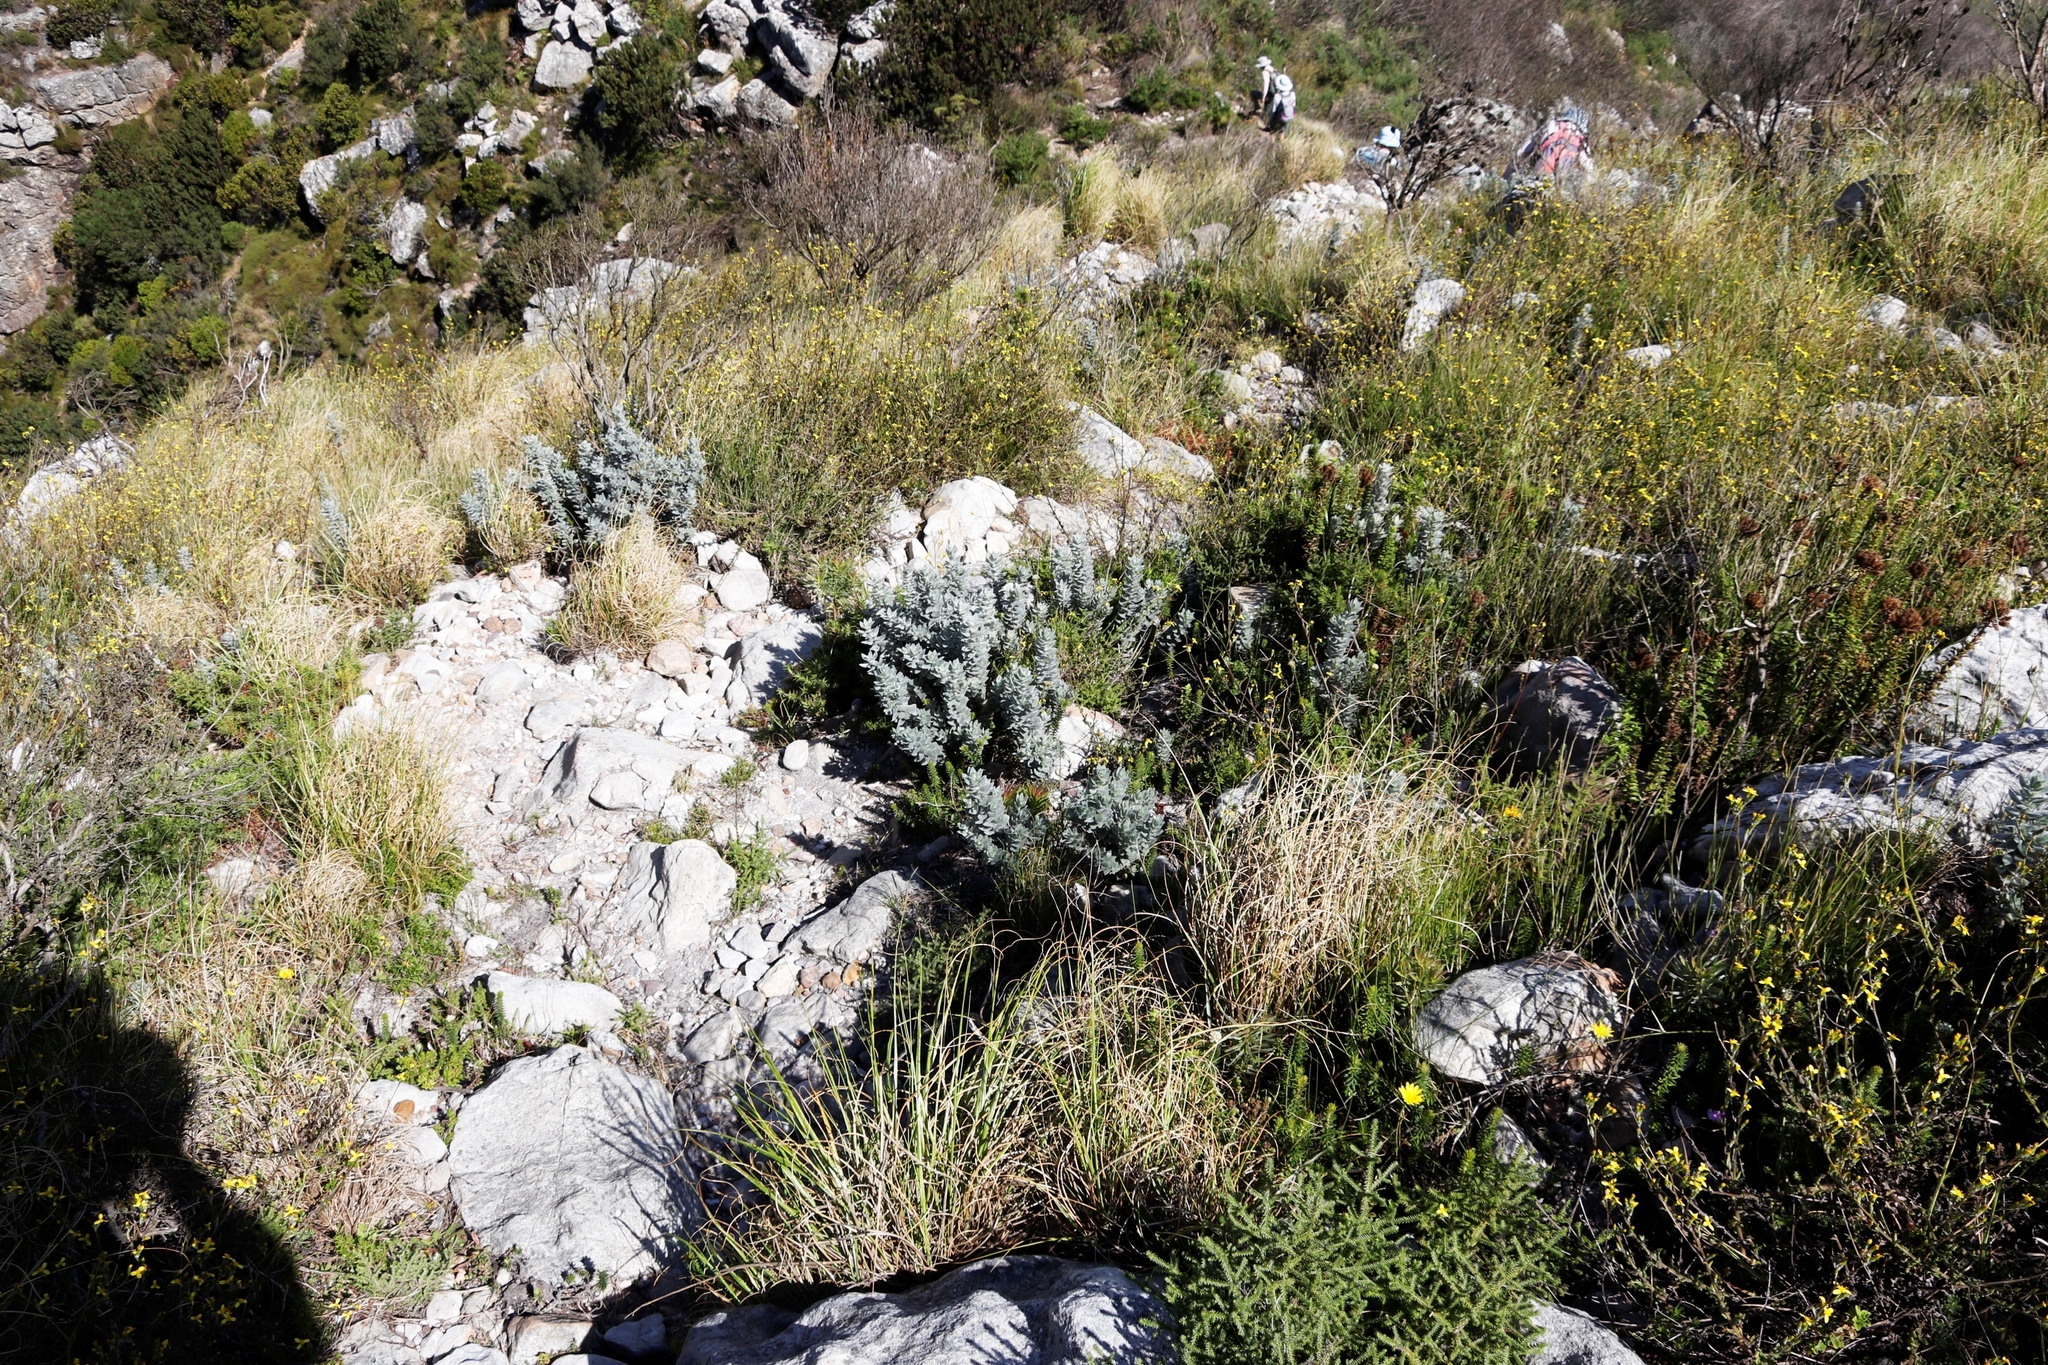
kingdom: Plantae
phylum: Tracheophyta
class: Magnoliopsida
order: Fabales
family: Fabaceae
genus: Xiphotheca
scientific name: Xiphotheca fruticosa
